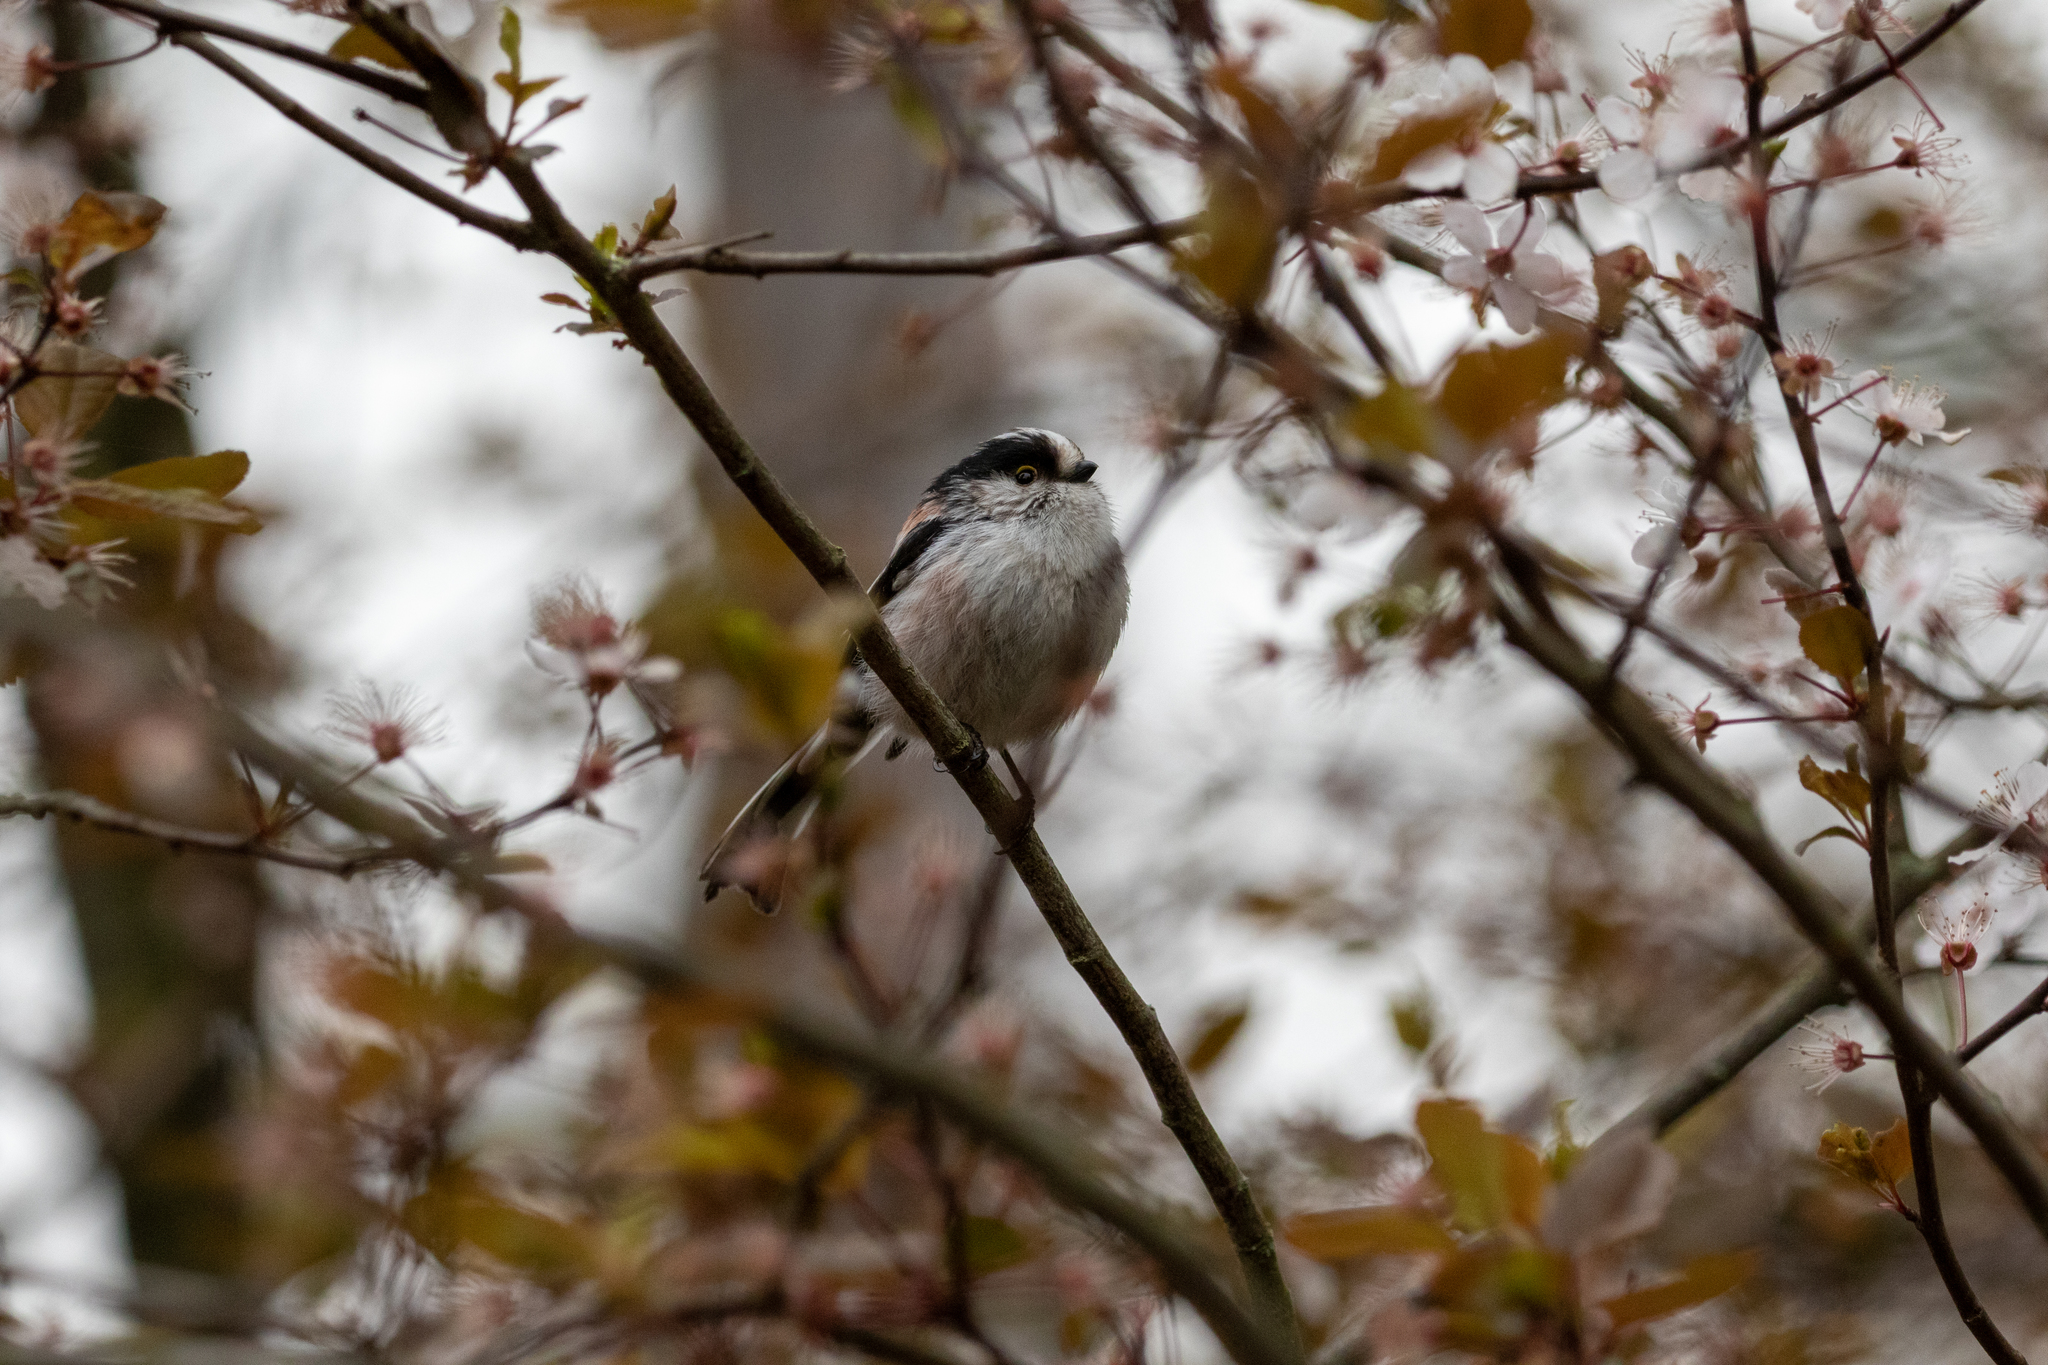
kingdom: Animalia
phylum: Chordata
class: Aves
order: Passeriformes
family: Aegithalidae
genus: Aegithalos
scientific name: Aegithalos caudatus
